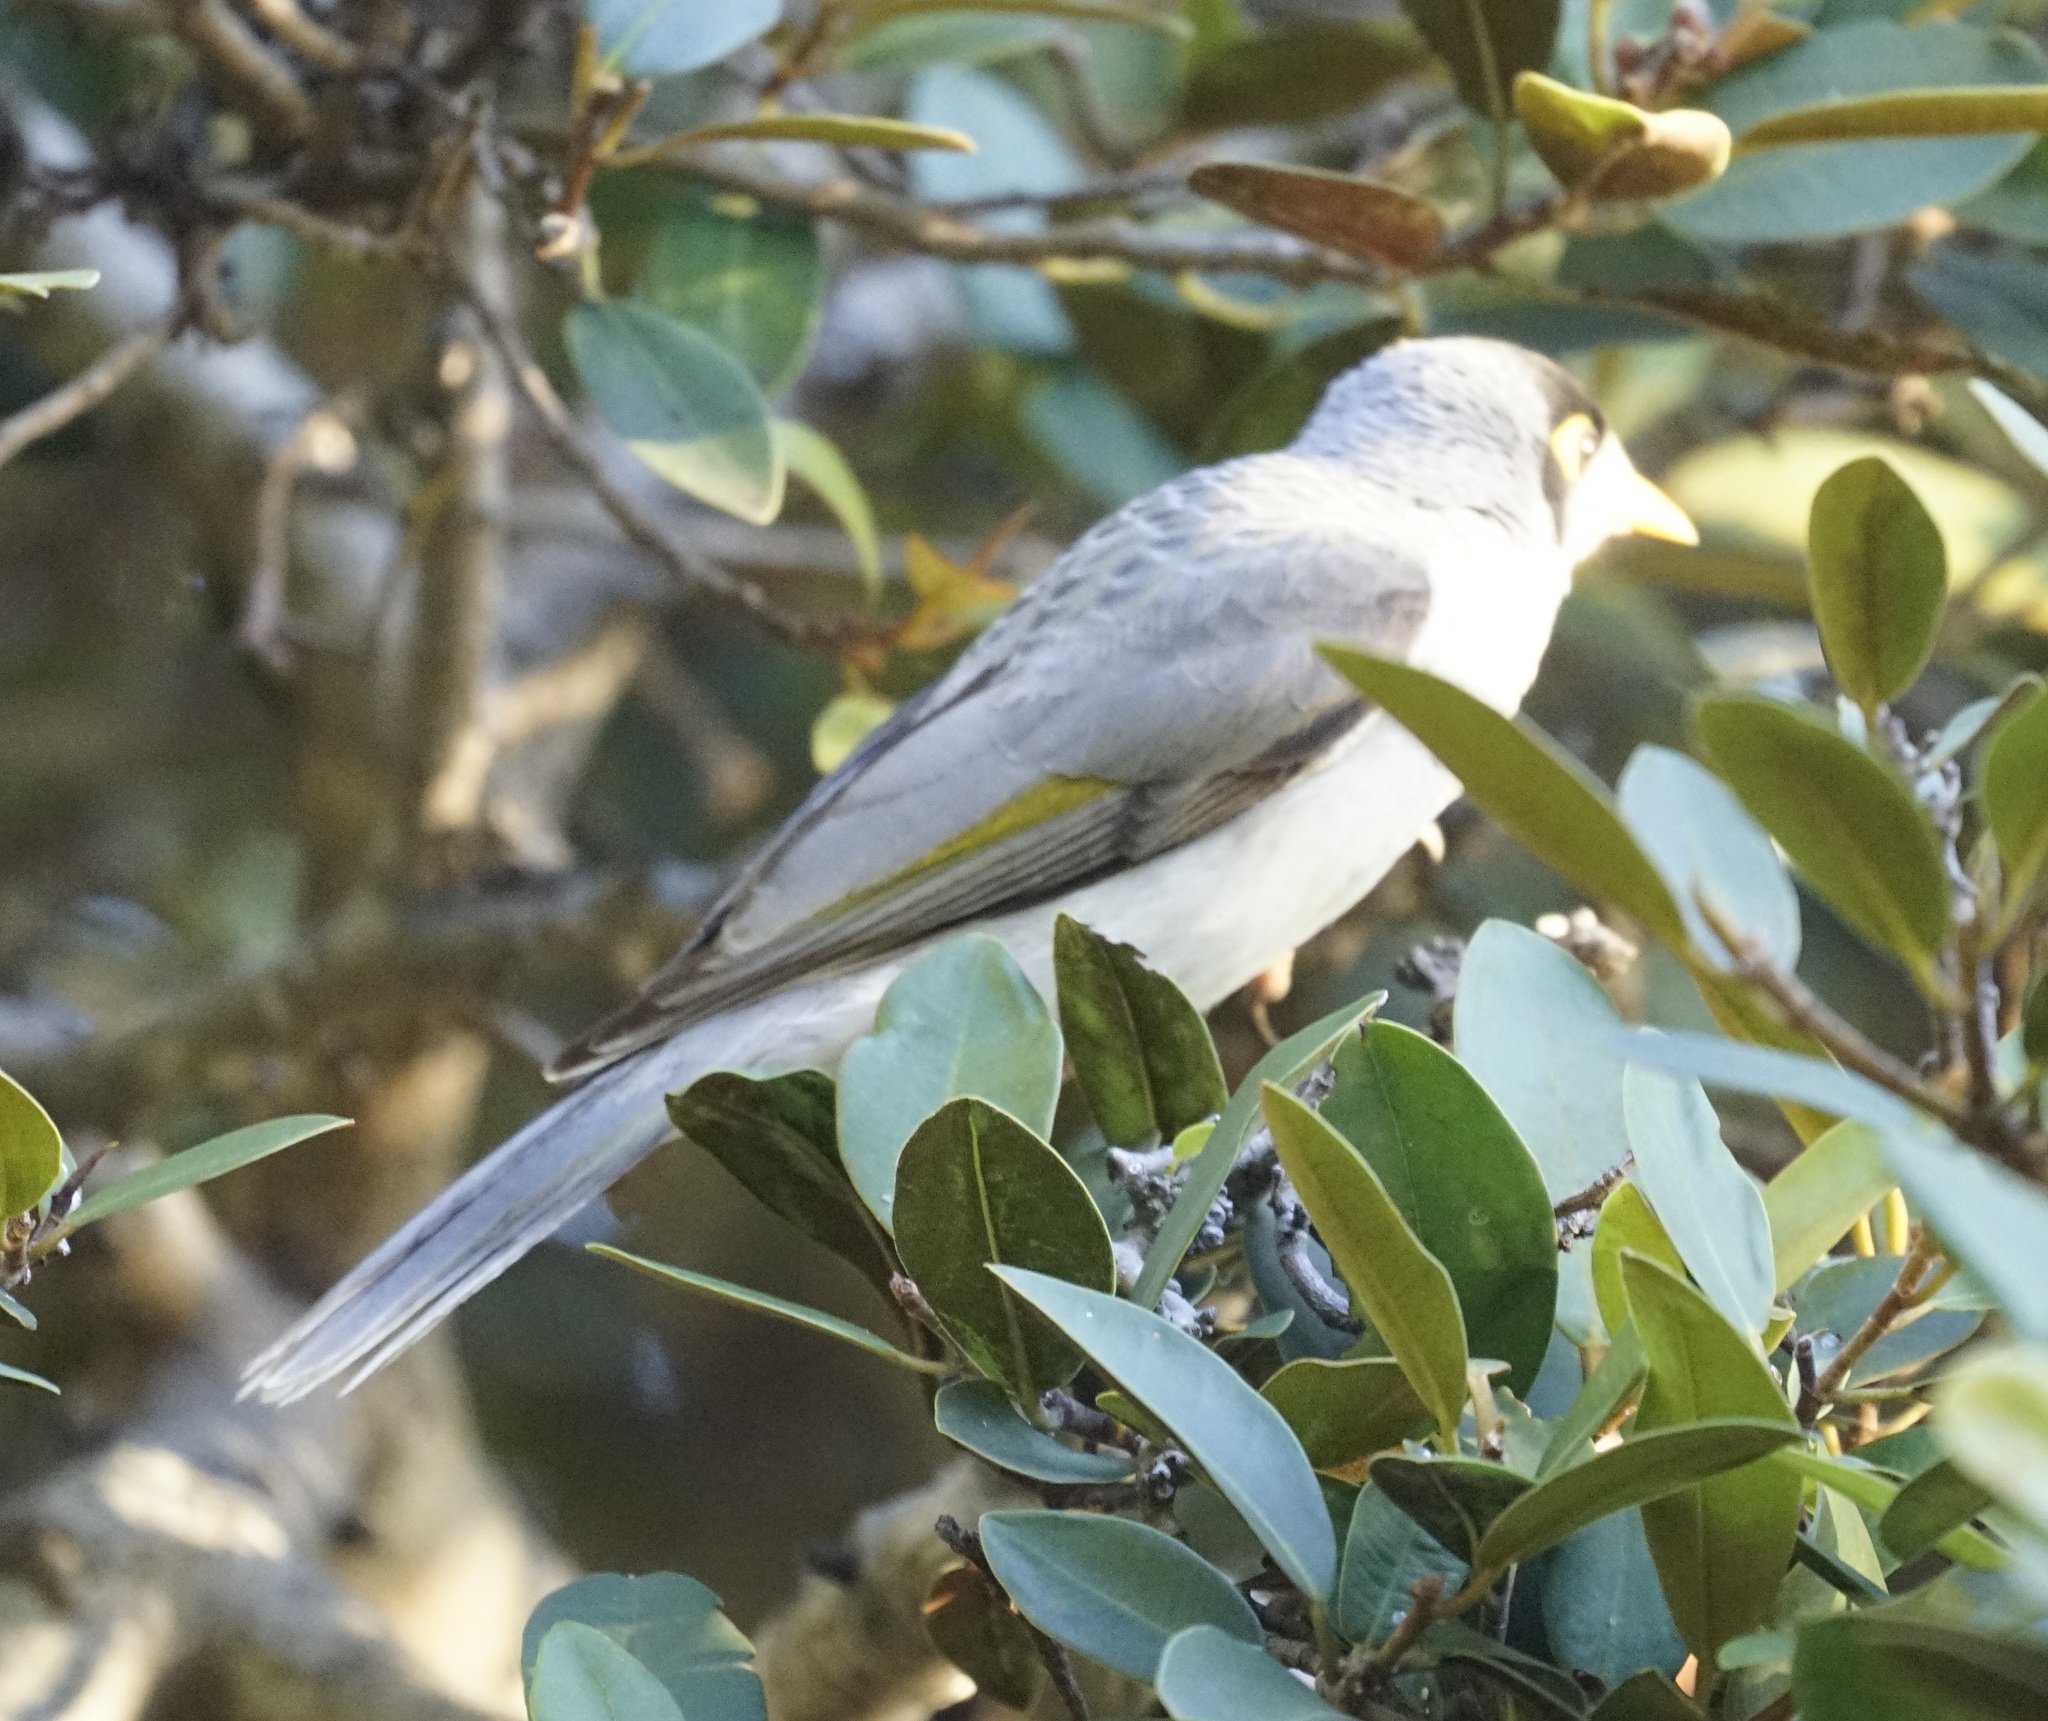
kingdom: Animalia
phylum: Chordata
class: Aves
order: Passeriformes
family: Meliphagidae
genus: Manorina
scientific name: Manorina melanocephala
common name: Noisy miner
